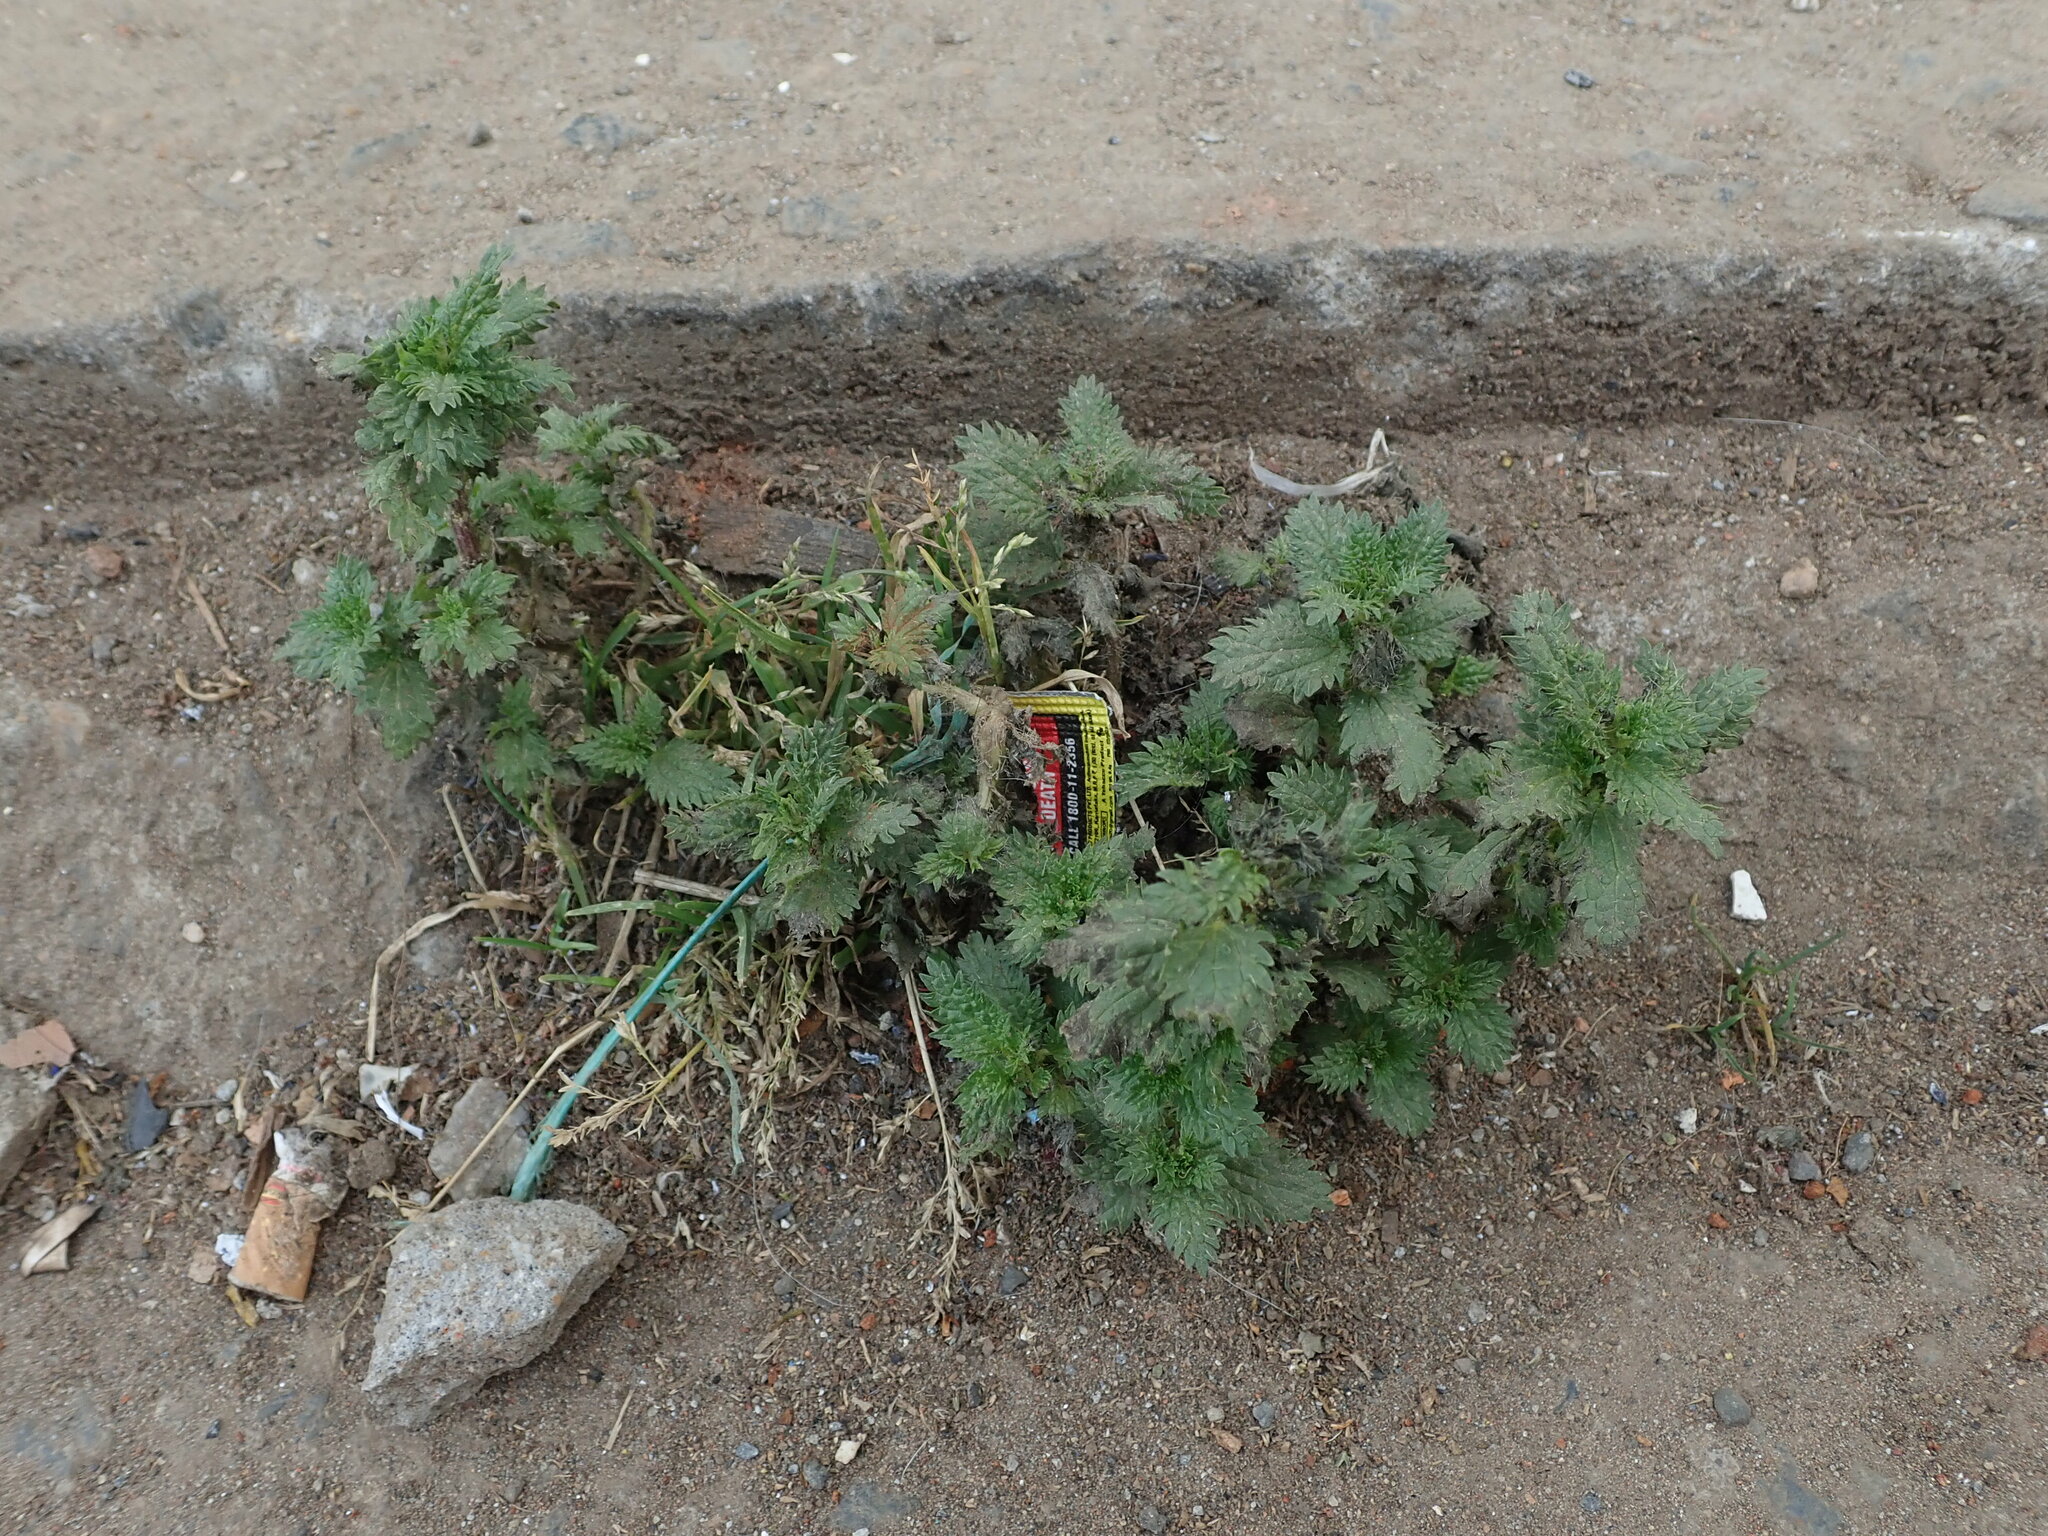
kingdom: Plantae
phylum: Tracheophyta
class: Magnoliopsida
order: Rosales
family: Urticaceae
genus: Urtica
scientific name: Urtica urens
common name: Dwarf nettle
